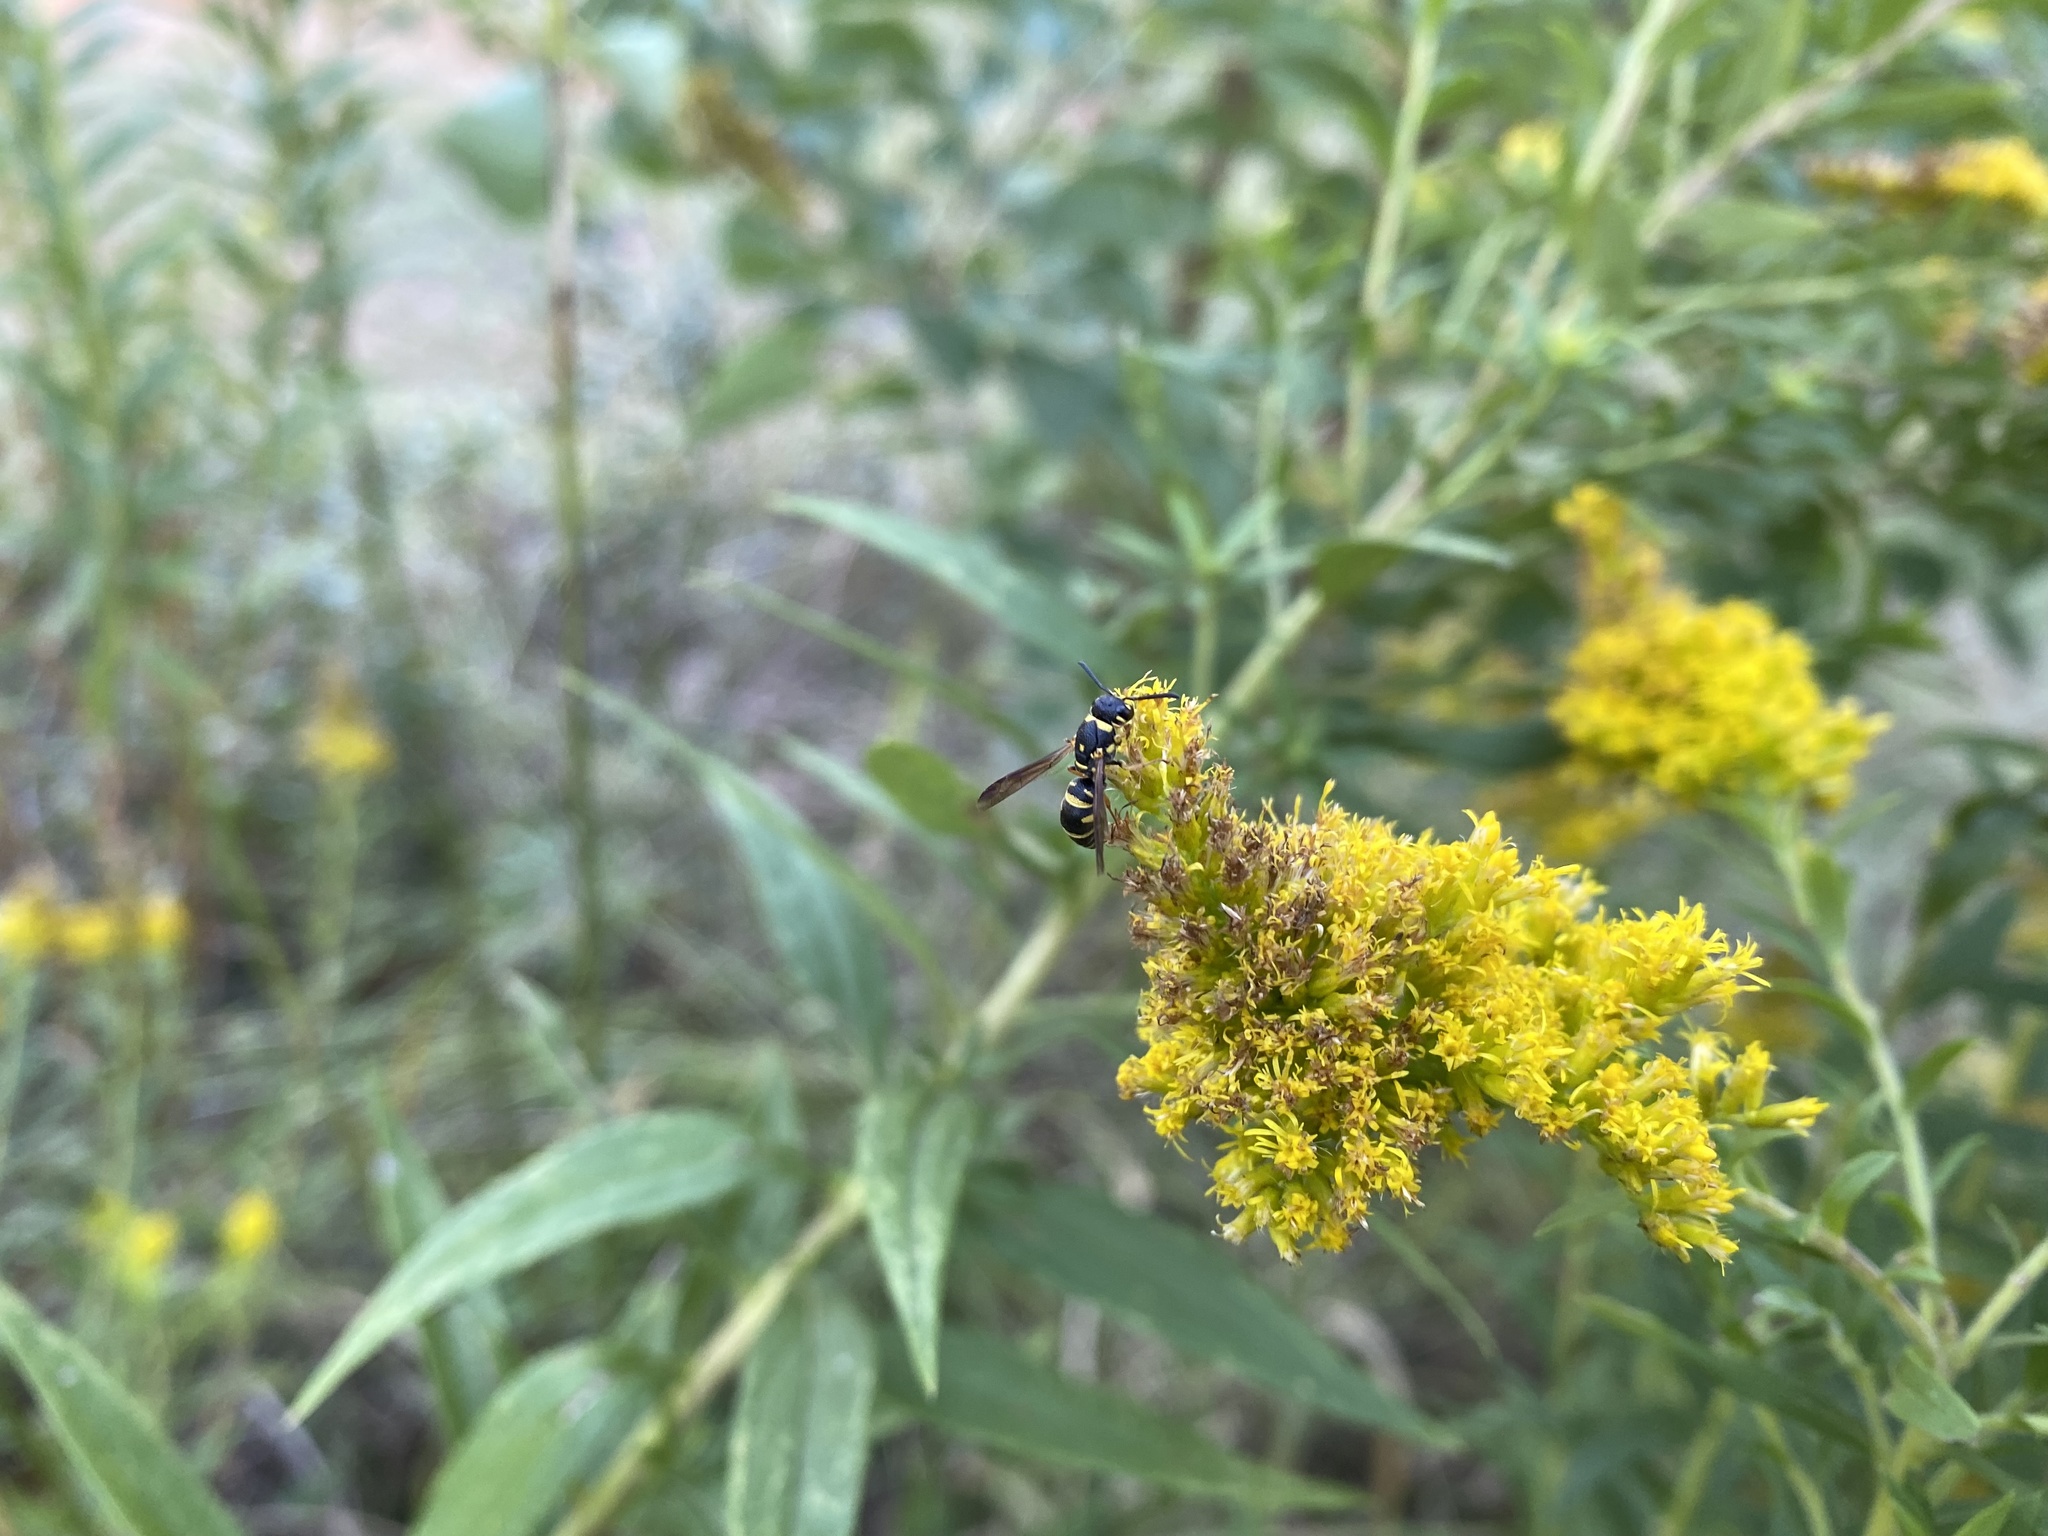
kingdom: Animalia
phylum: Arthropoda
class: Insecta
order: Hymenoptera
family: Eumenidae
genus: Parancistrocerus
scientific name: Parancistrocerus
